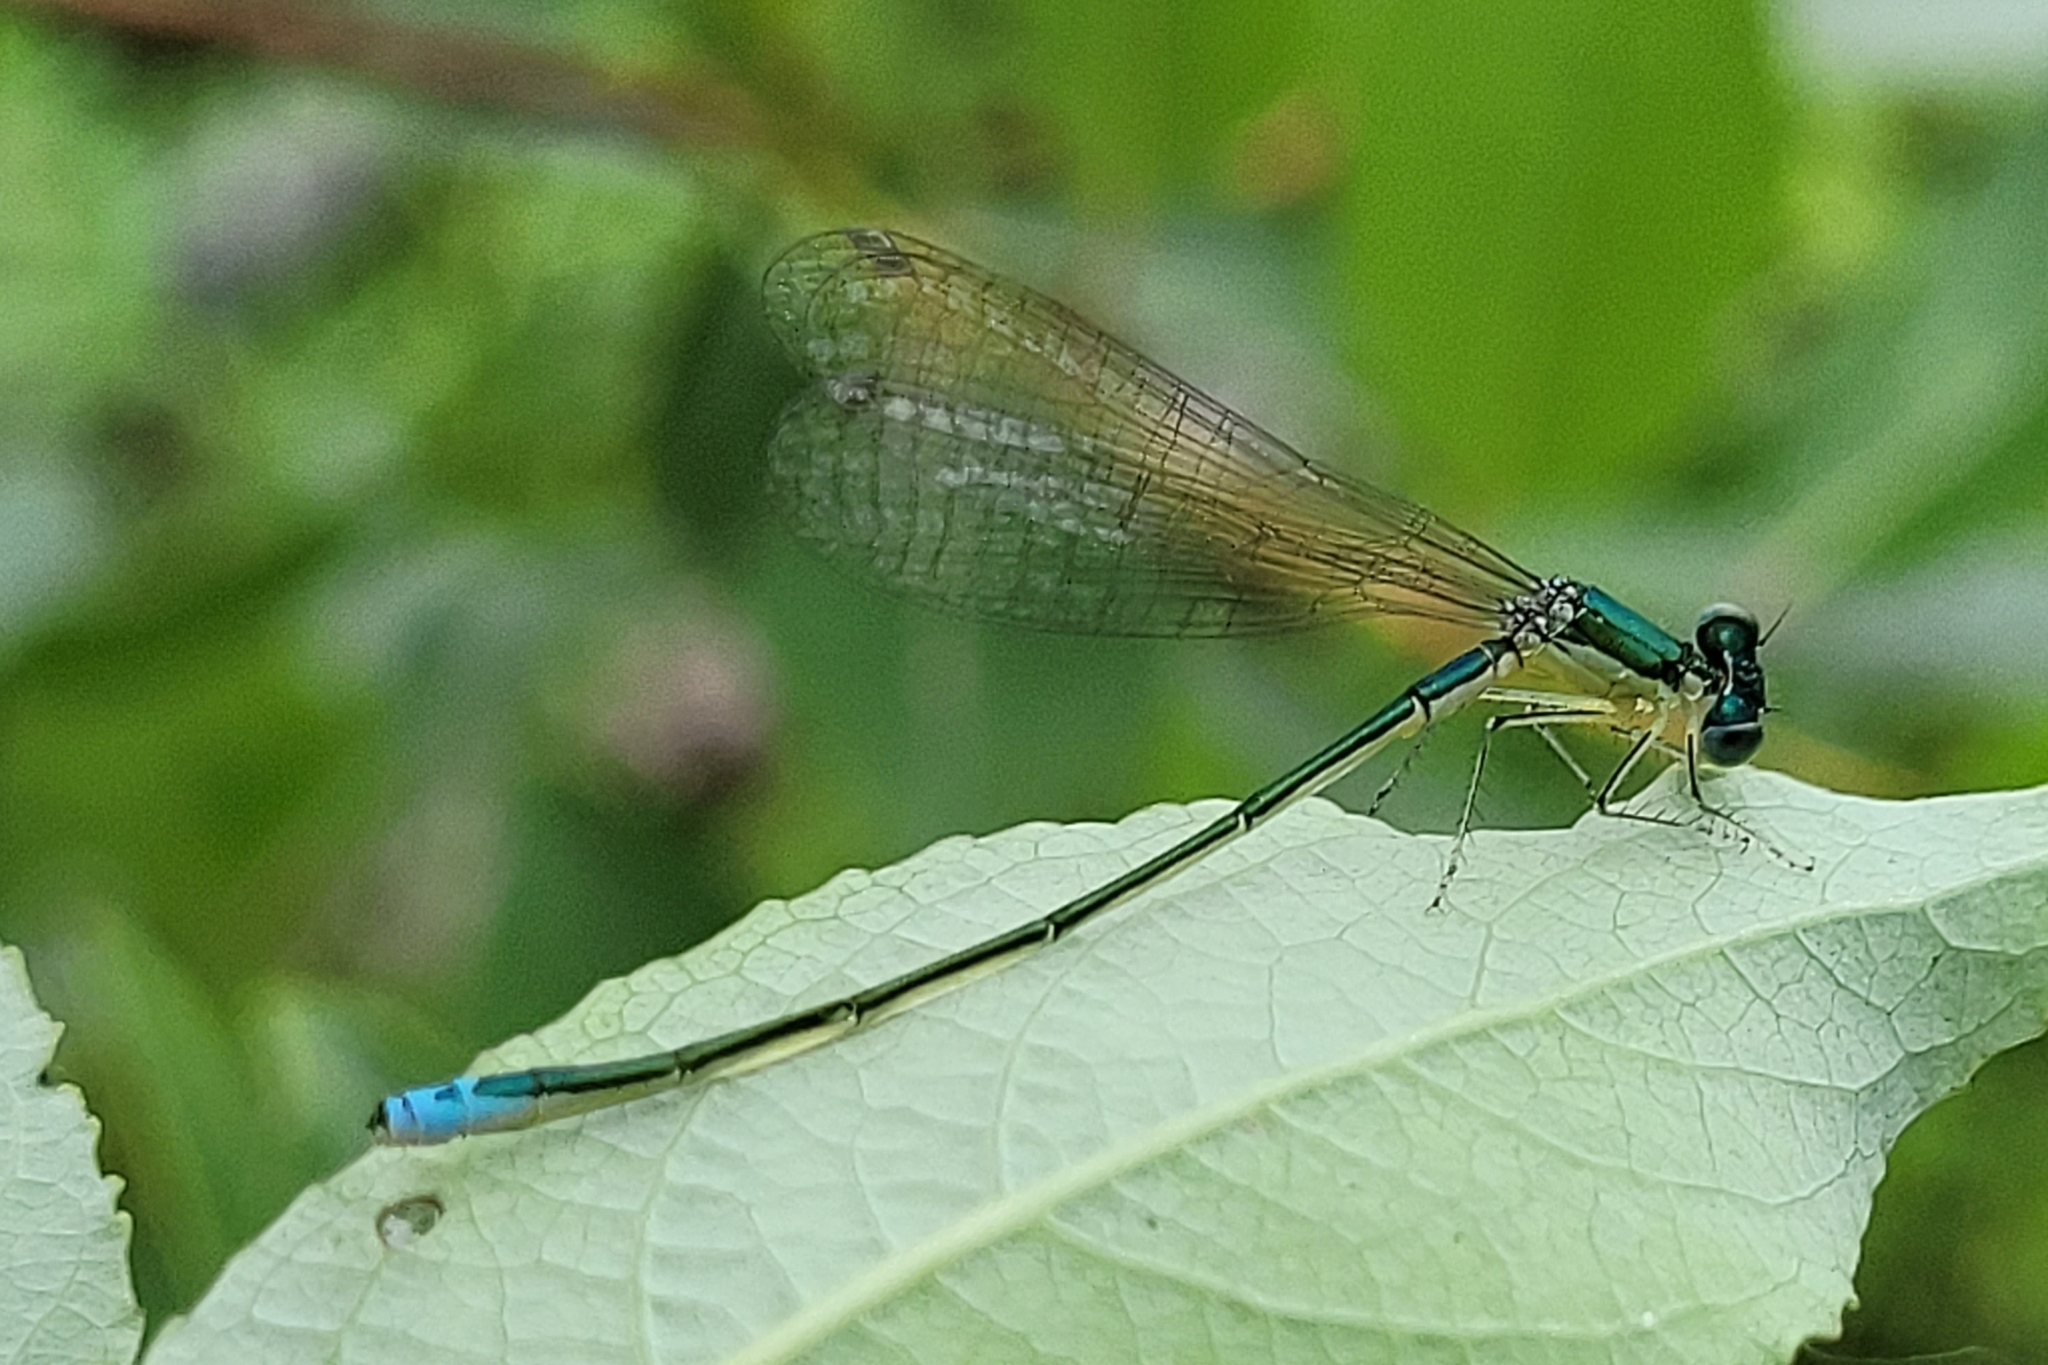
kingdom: Animalia
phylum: Arthropoda
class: Insecta
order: Odonata
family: Coenagrionidae
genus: Nehalennia
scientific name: Nehalennia irene
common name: Sedge sprite
